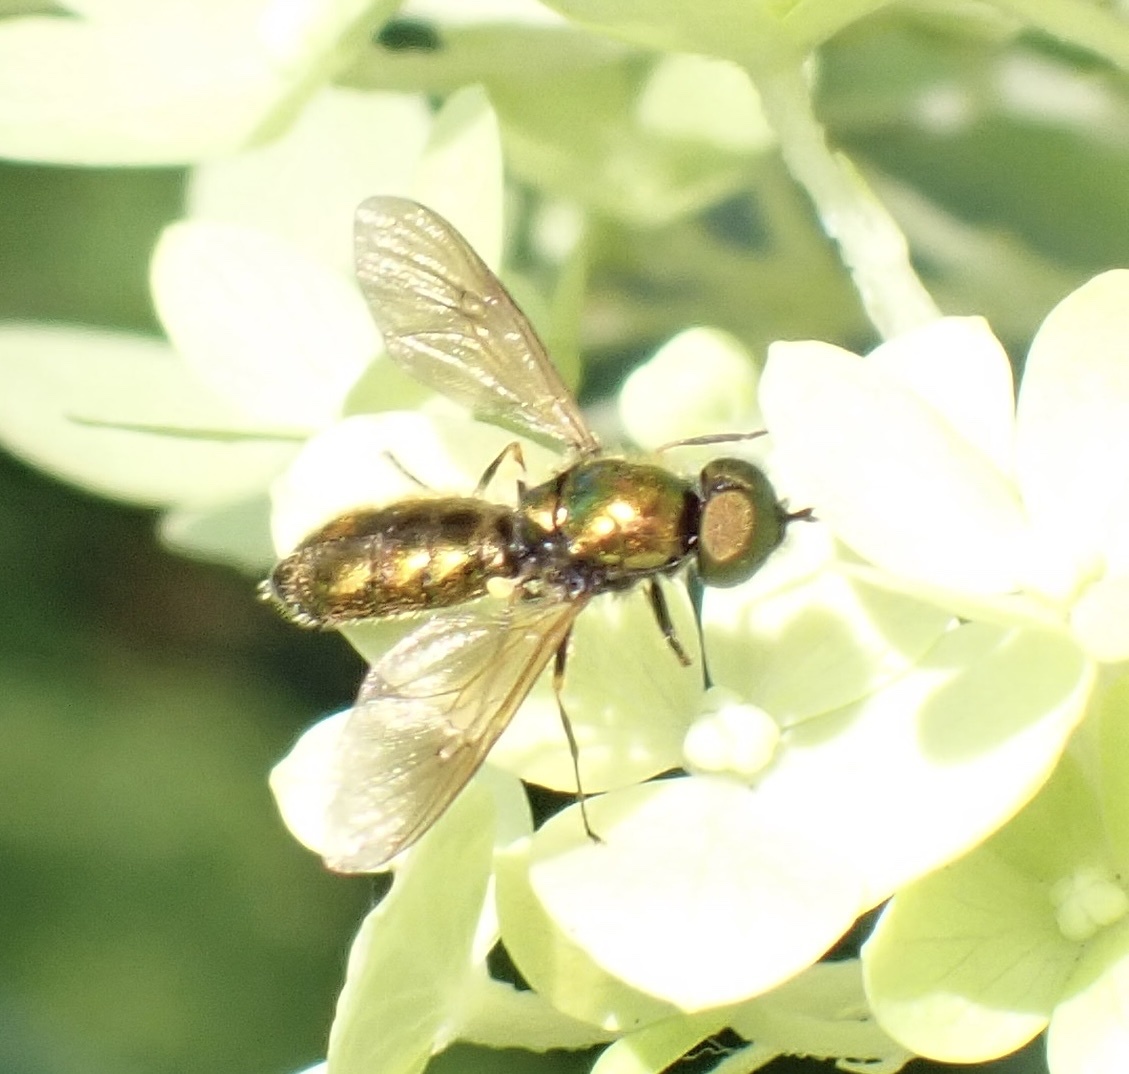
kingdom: Animalia
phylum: Arthropoda
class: Insecta
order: Diptera
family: Stratiomyidae
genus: Chloromyia
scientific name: Chloromyia formosa
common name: Soldier fly
